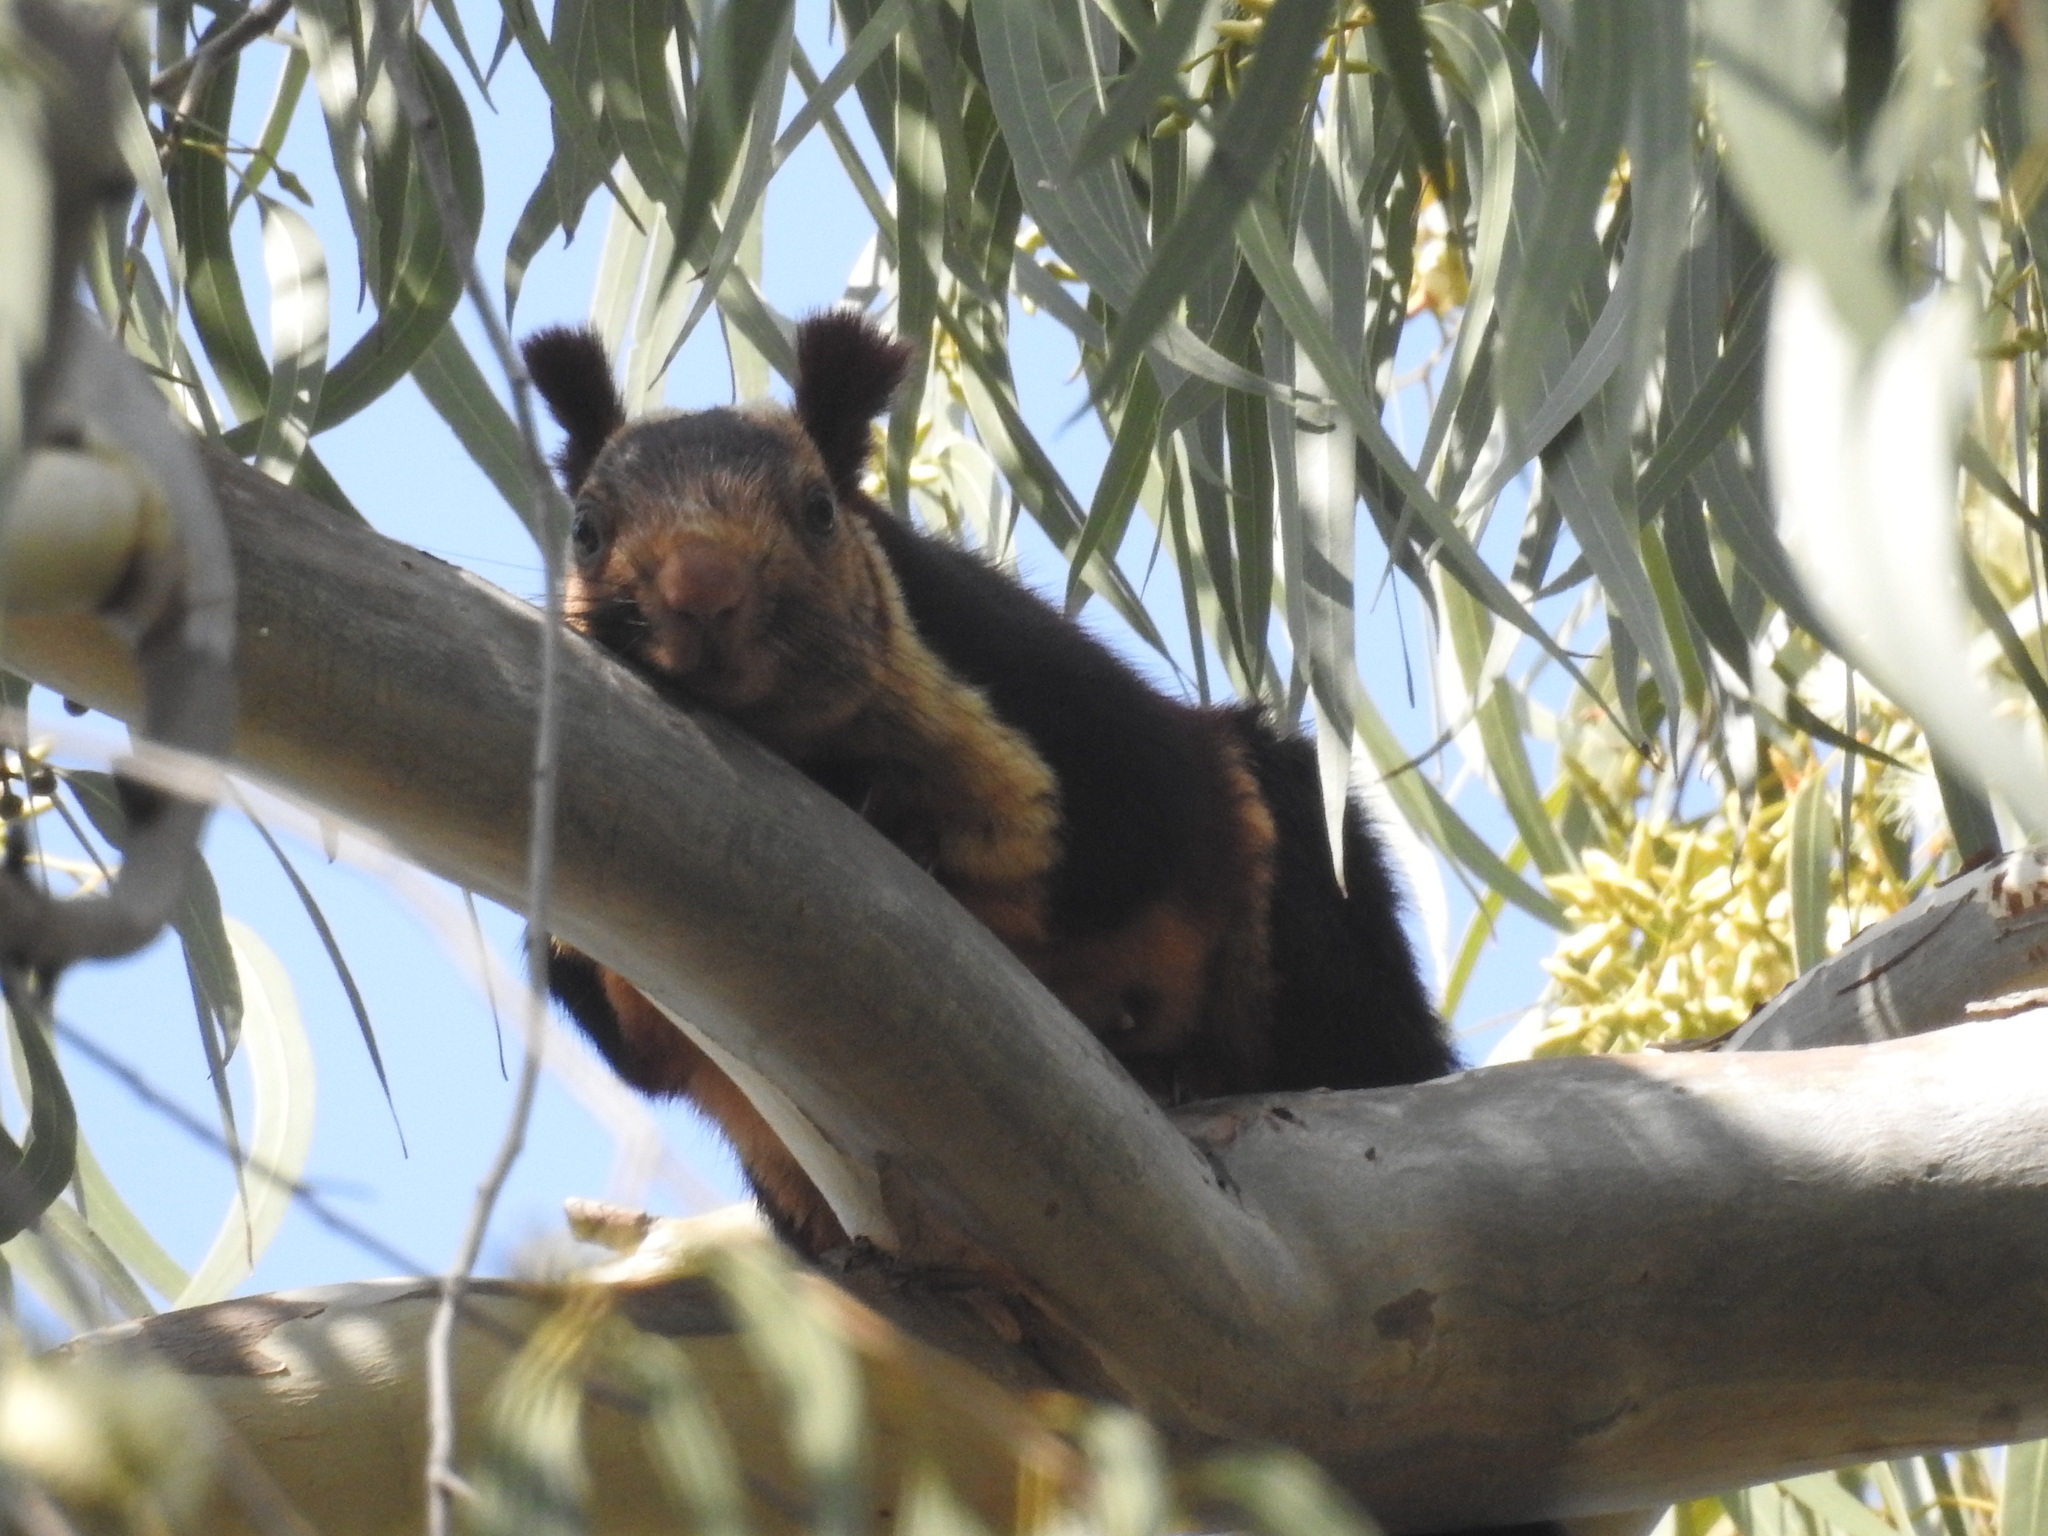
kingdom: Animalia
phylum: Chordata
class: Mammalia
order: Rodentia
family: Sciuridae
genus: Ratufa
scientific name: Ratufa indica
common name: Indian giant squirrel
